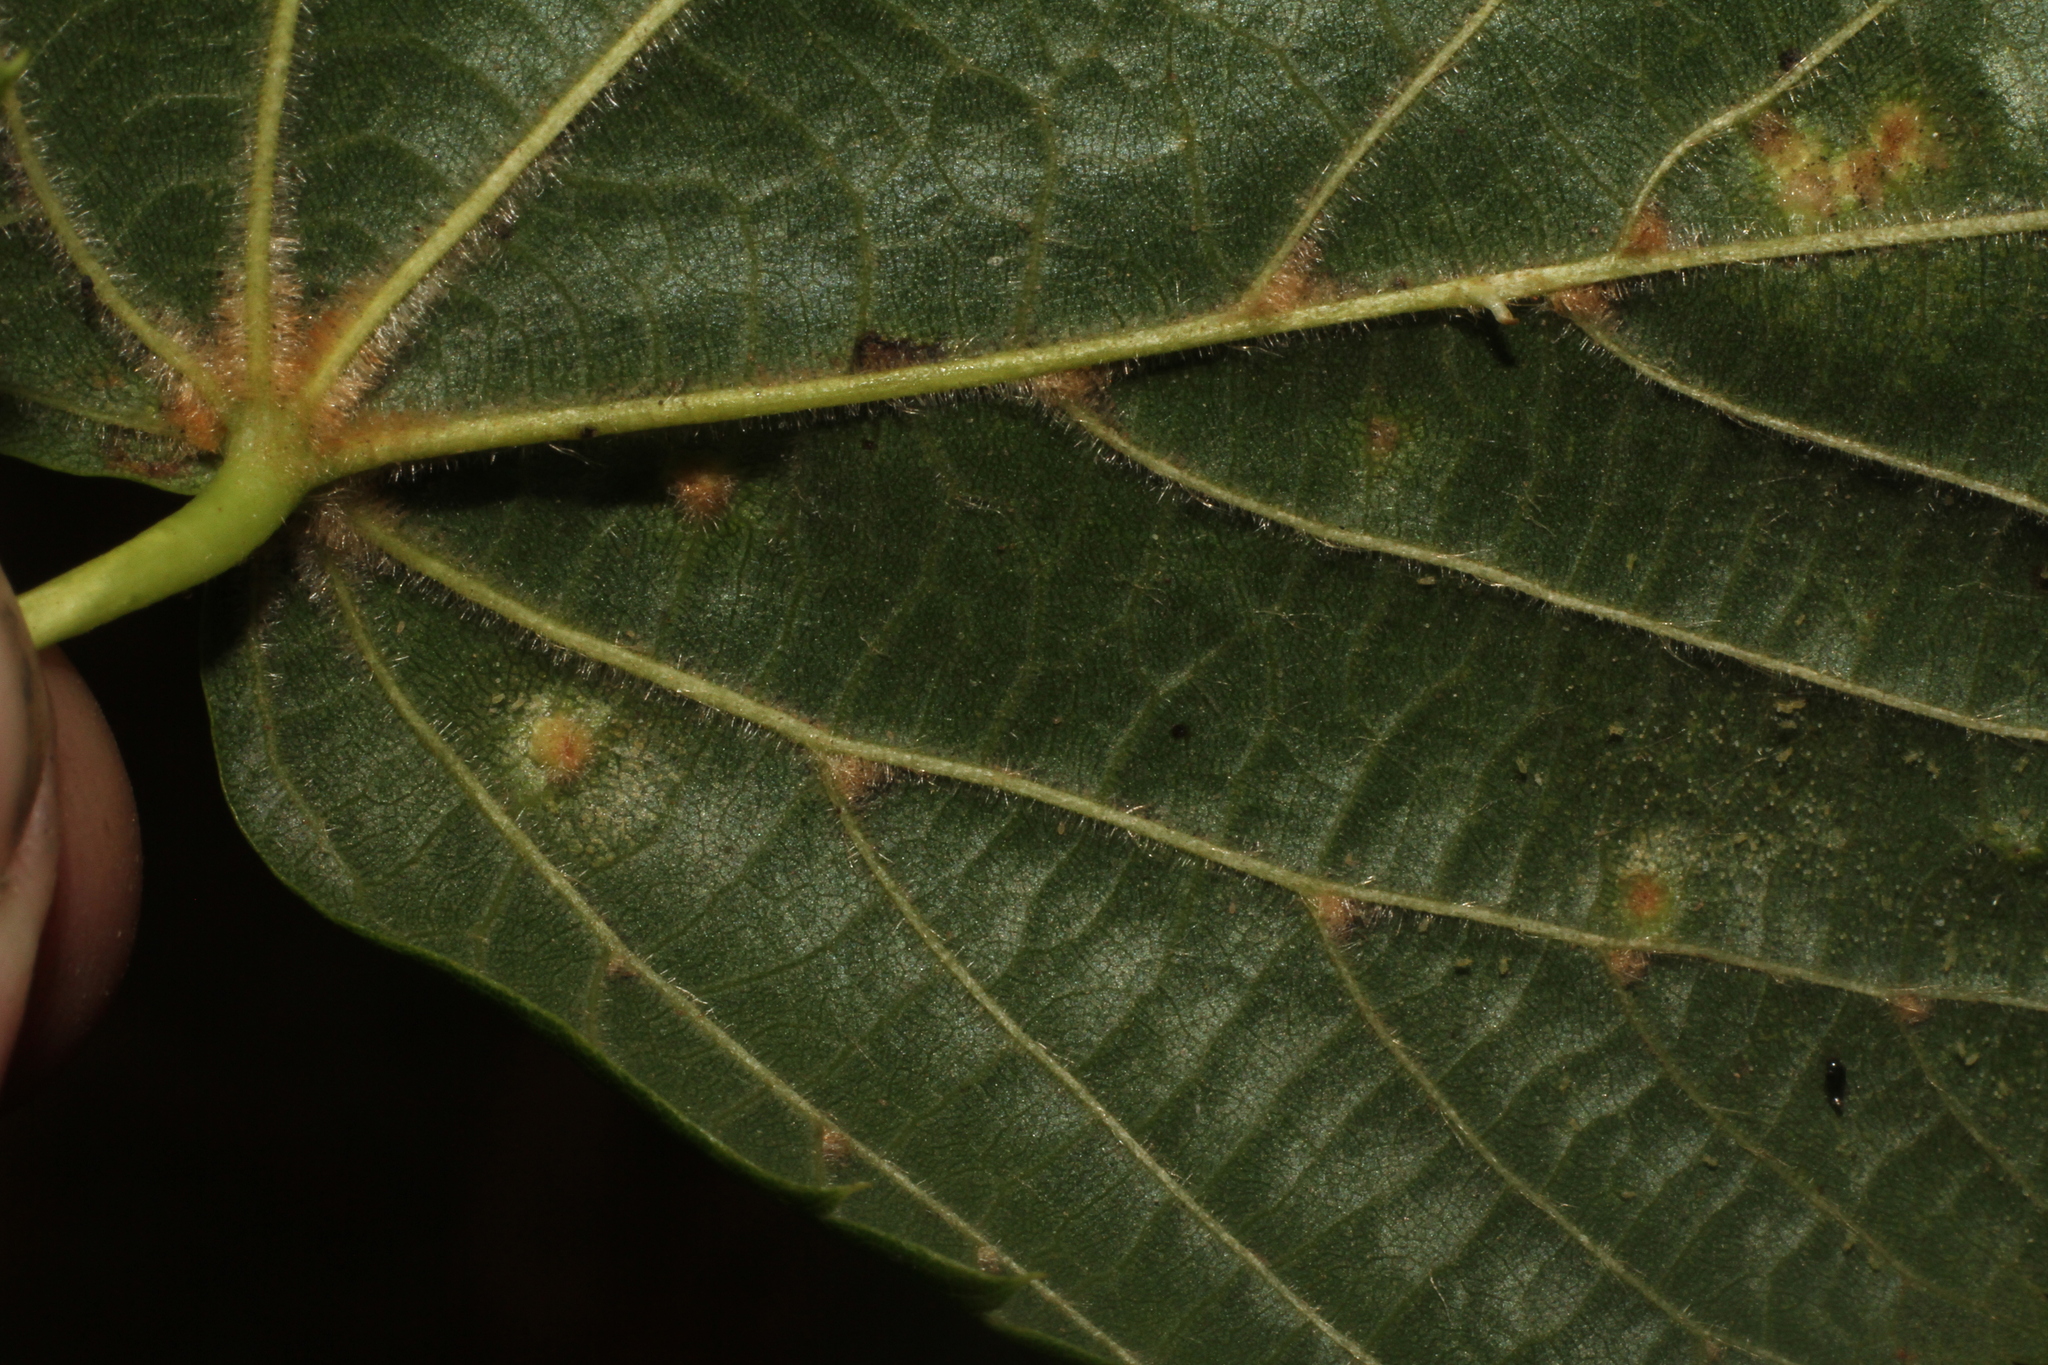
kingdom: Animalia
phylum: Arthropoda
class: Arachnida
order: Trombidiformes
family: Eriophyidae
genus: Eriophyes
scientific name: Eriophyes tiliae
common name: Red nail gall mite
